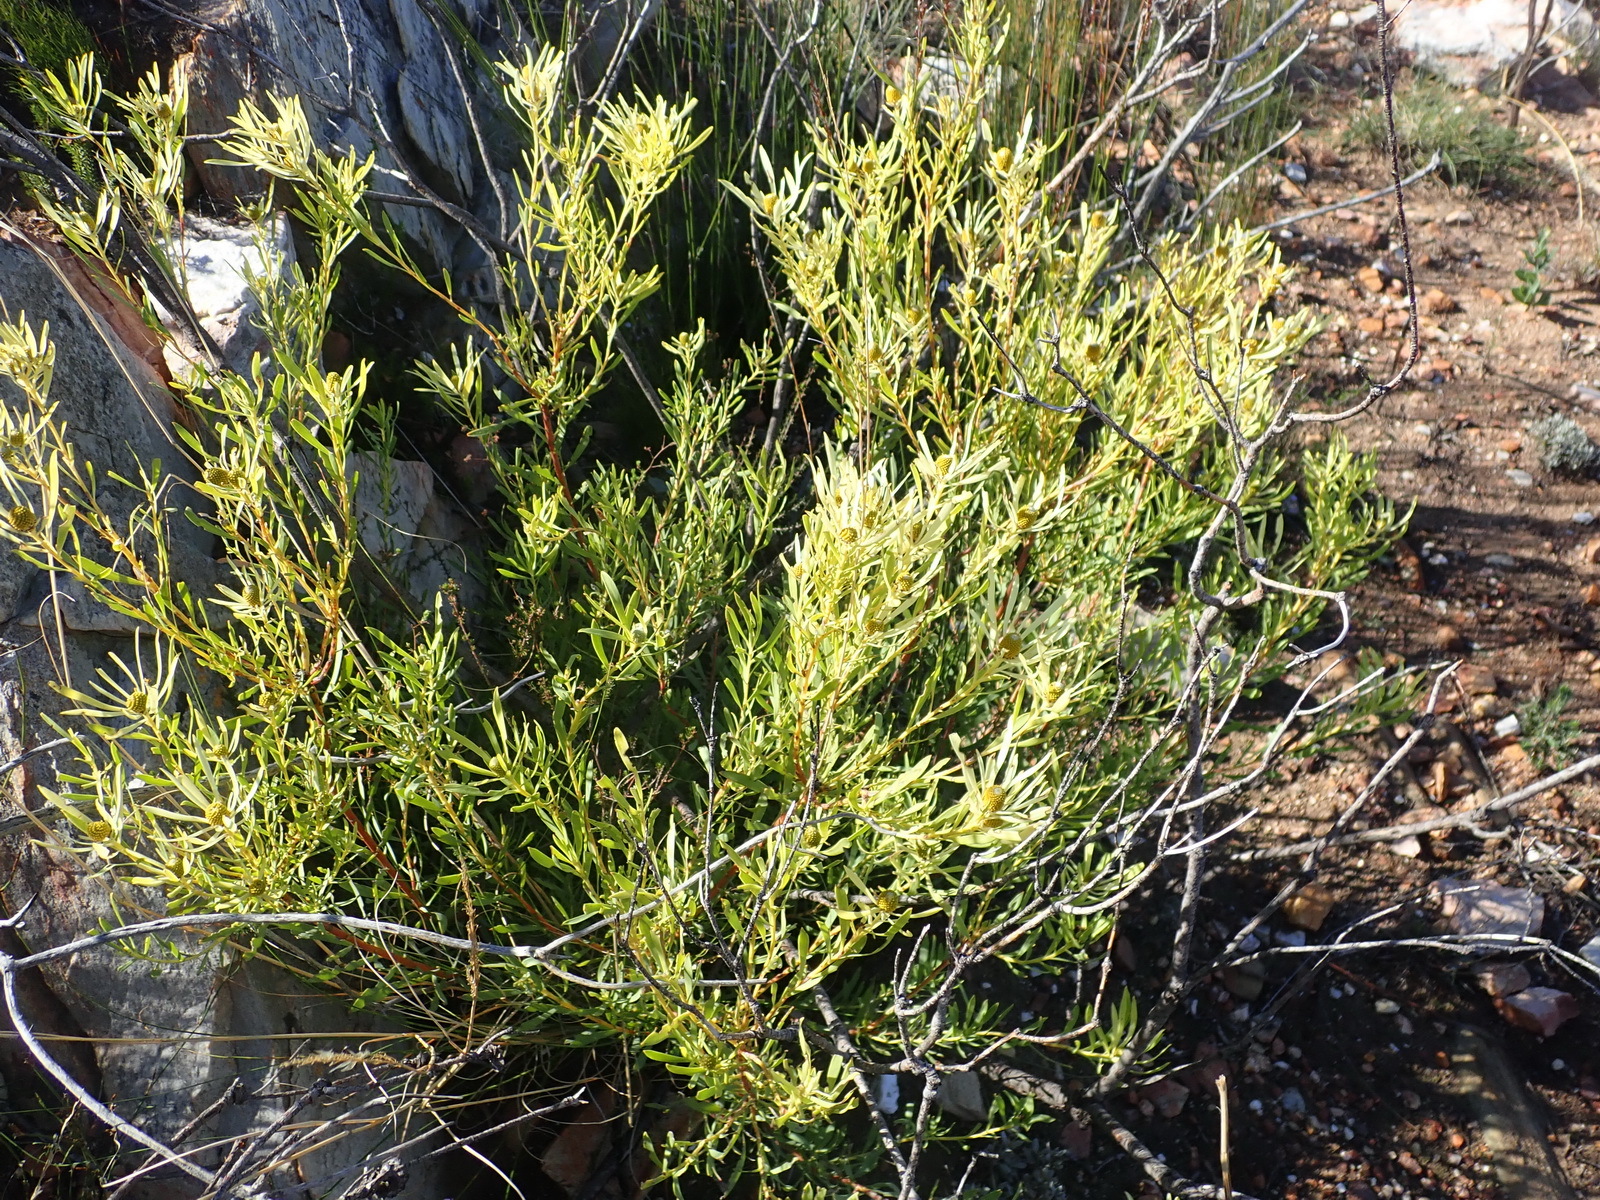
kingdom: Plantae
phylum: Tracheophyta
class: Magnoliopsida
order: Proteales
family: Proteaceae
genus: Leucadendron
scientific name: Leucadendron salignum
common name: Common sunshine conebush
